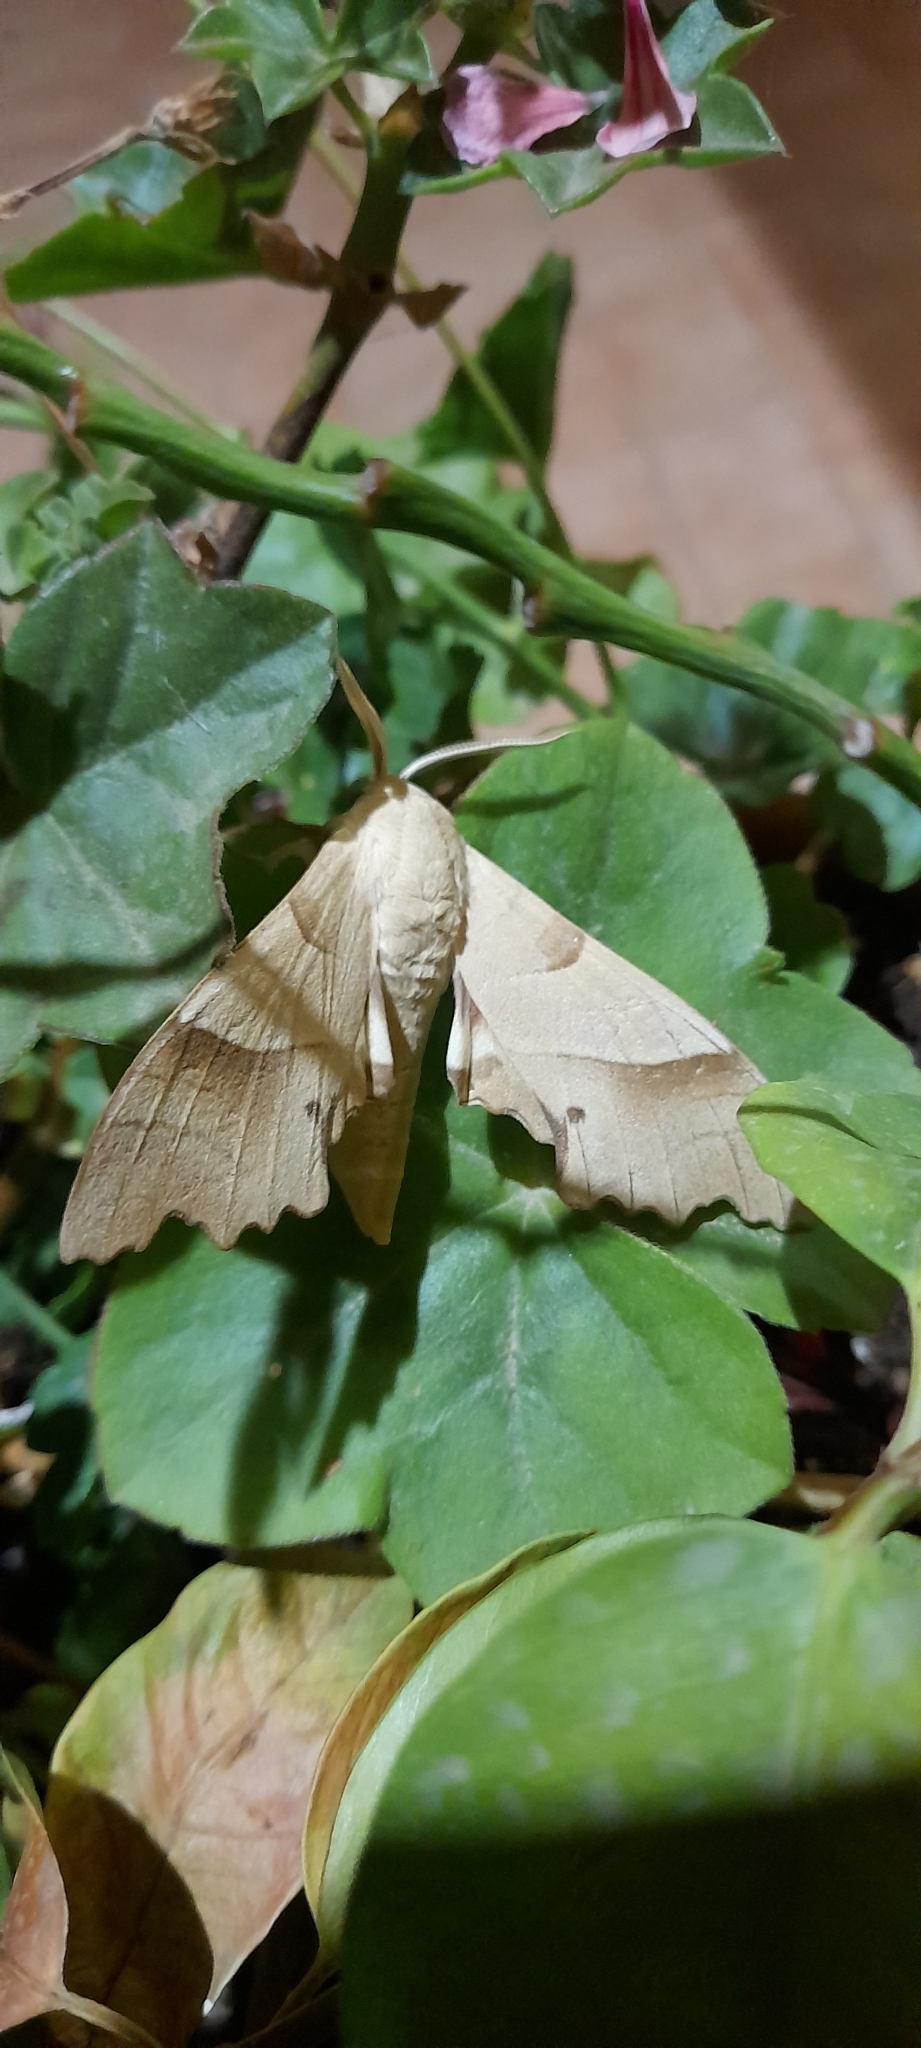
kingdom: Animalia
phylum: Arthropoda
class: Insecta
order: Lepidoptera
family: Sphingidae
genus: Marumba
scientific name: Marumba quercus
